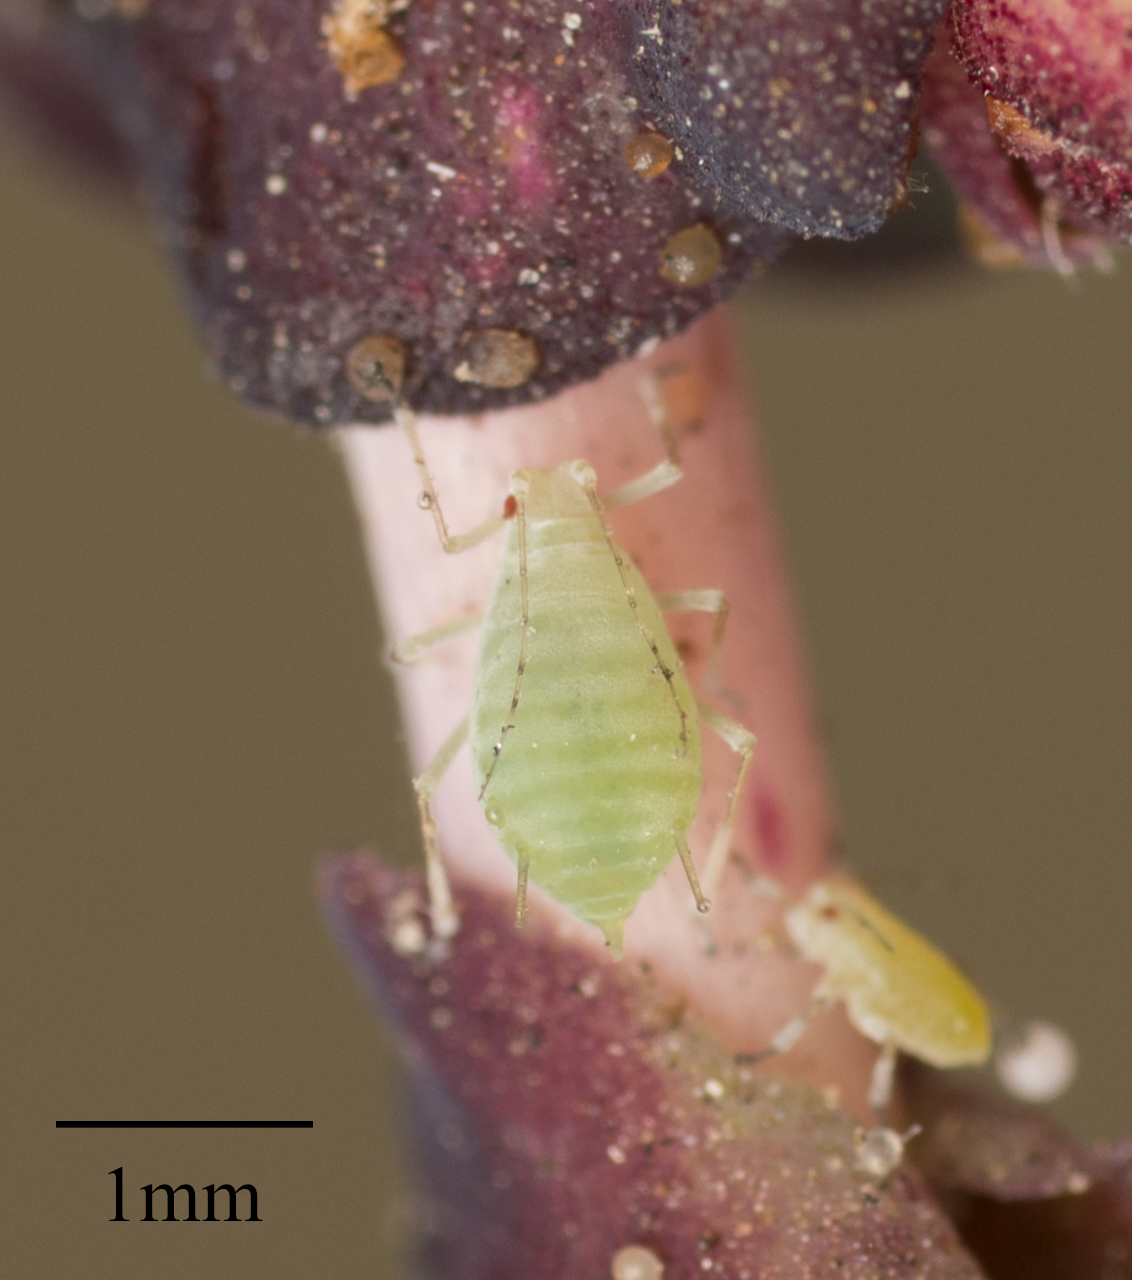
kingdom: Animalia
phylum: Arthropoda
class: Insecta
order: Hemiptera
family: Aphididae
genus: Acyrthosiphon
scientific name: Acyrthosiphon lactucae
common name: Aphid
